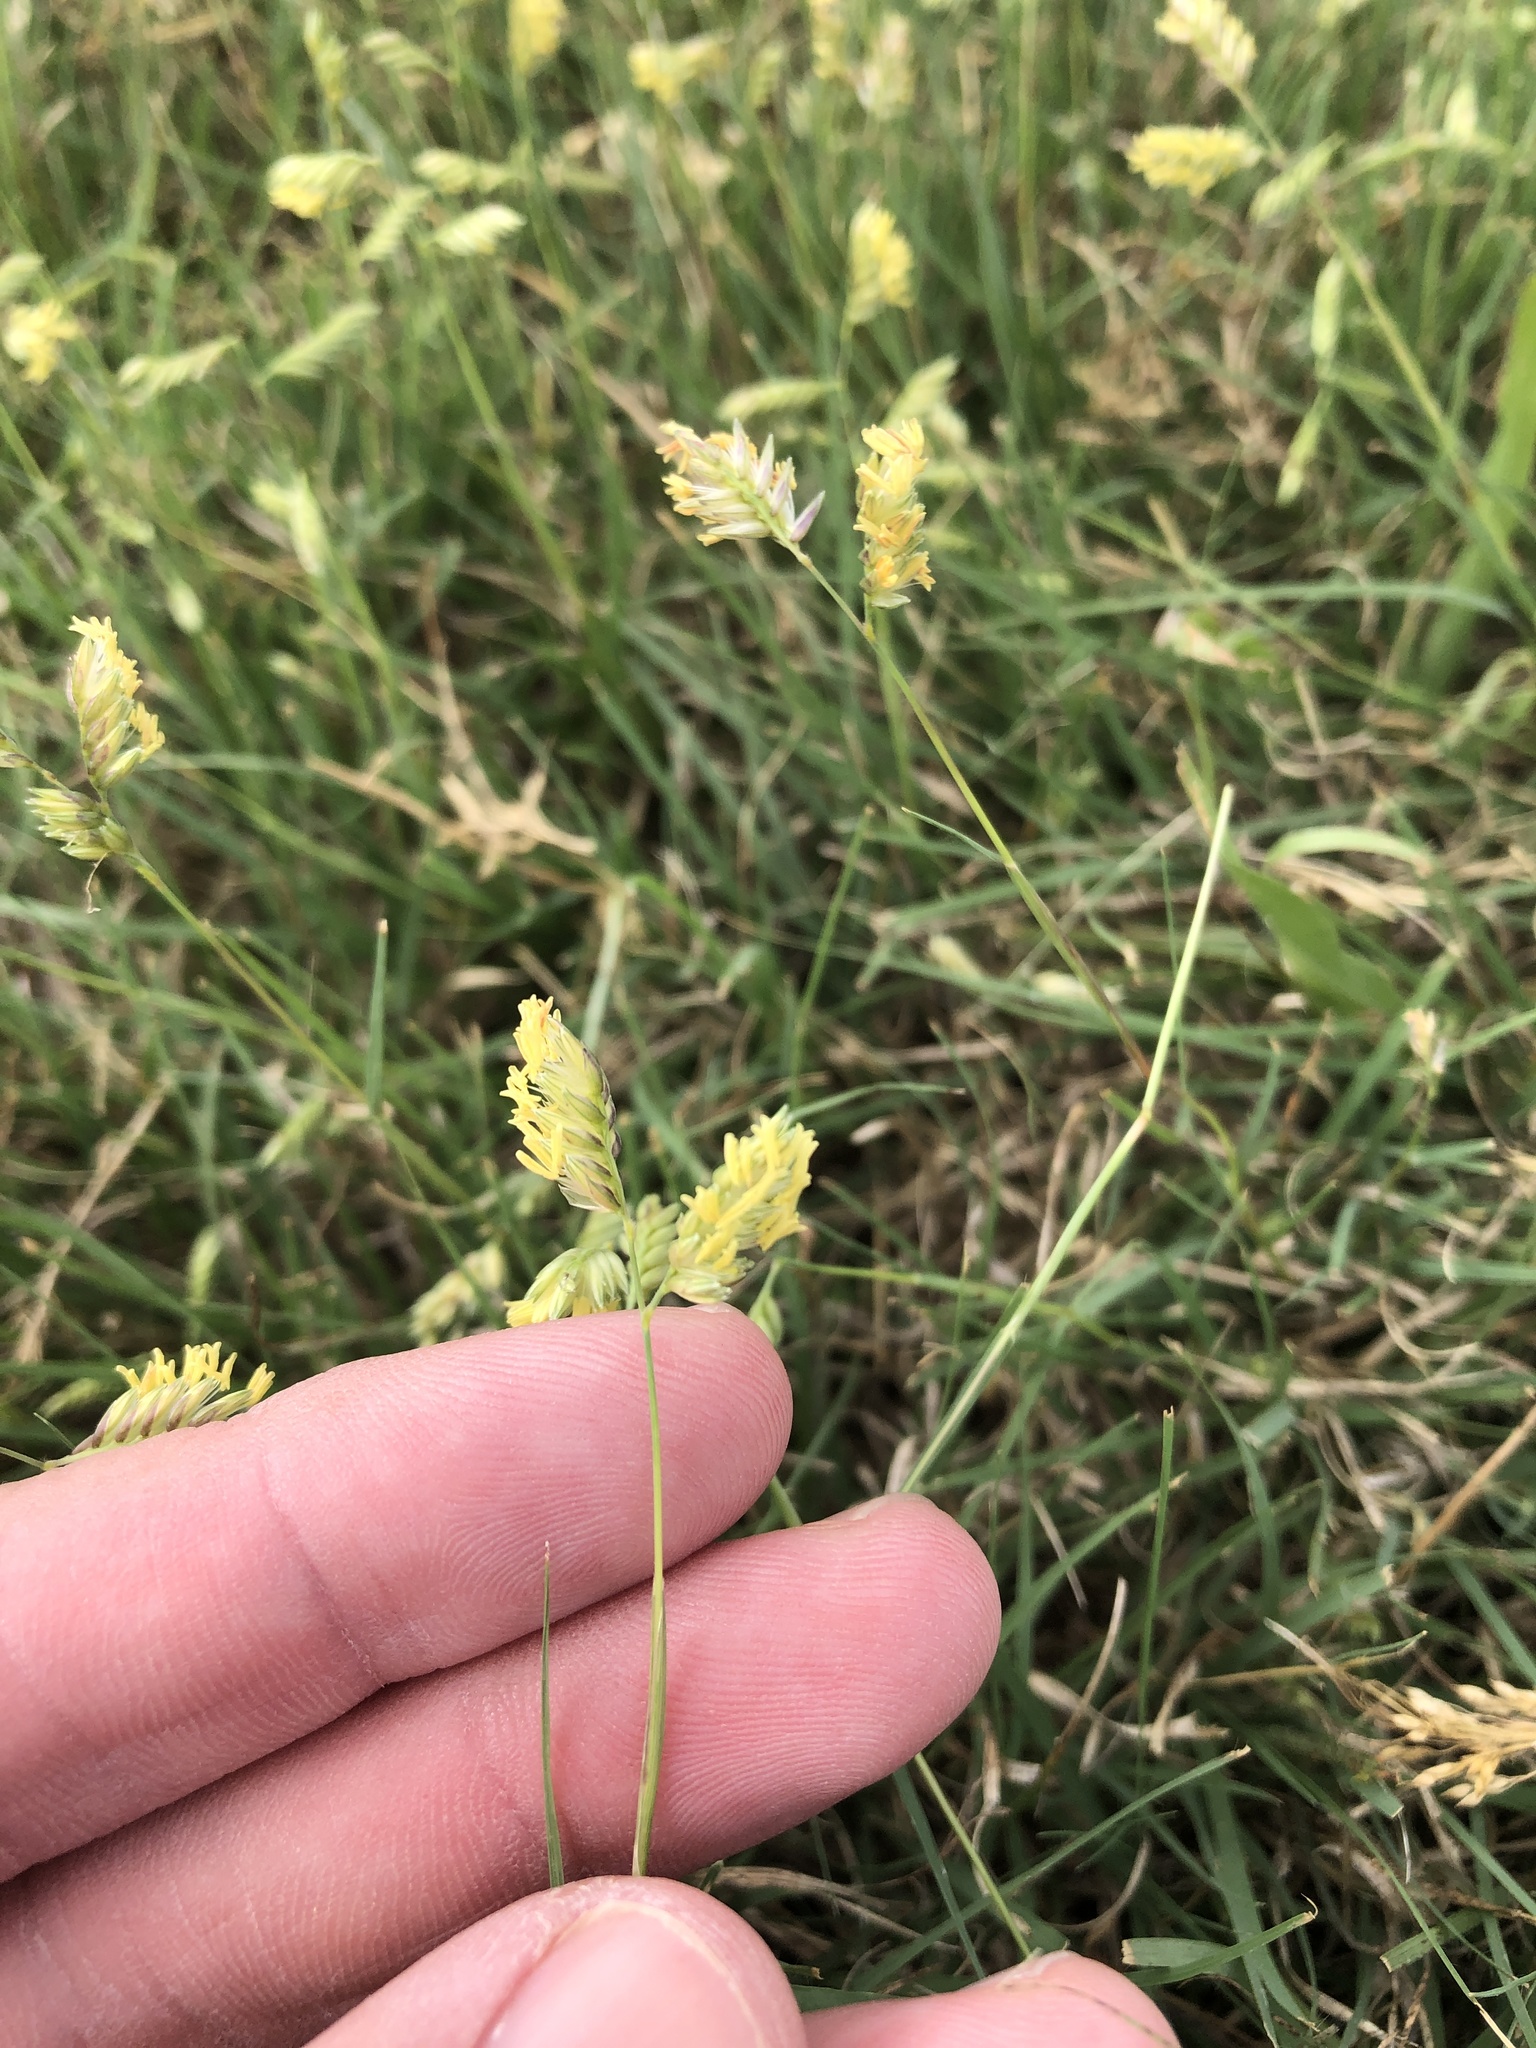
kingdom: Plantae
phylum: Tracheophyta
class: Liliopsida
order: Poales
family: Poaceae
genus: Bouteloua
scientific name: Bouteloua dactyloides
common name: Buffalo grass
